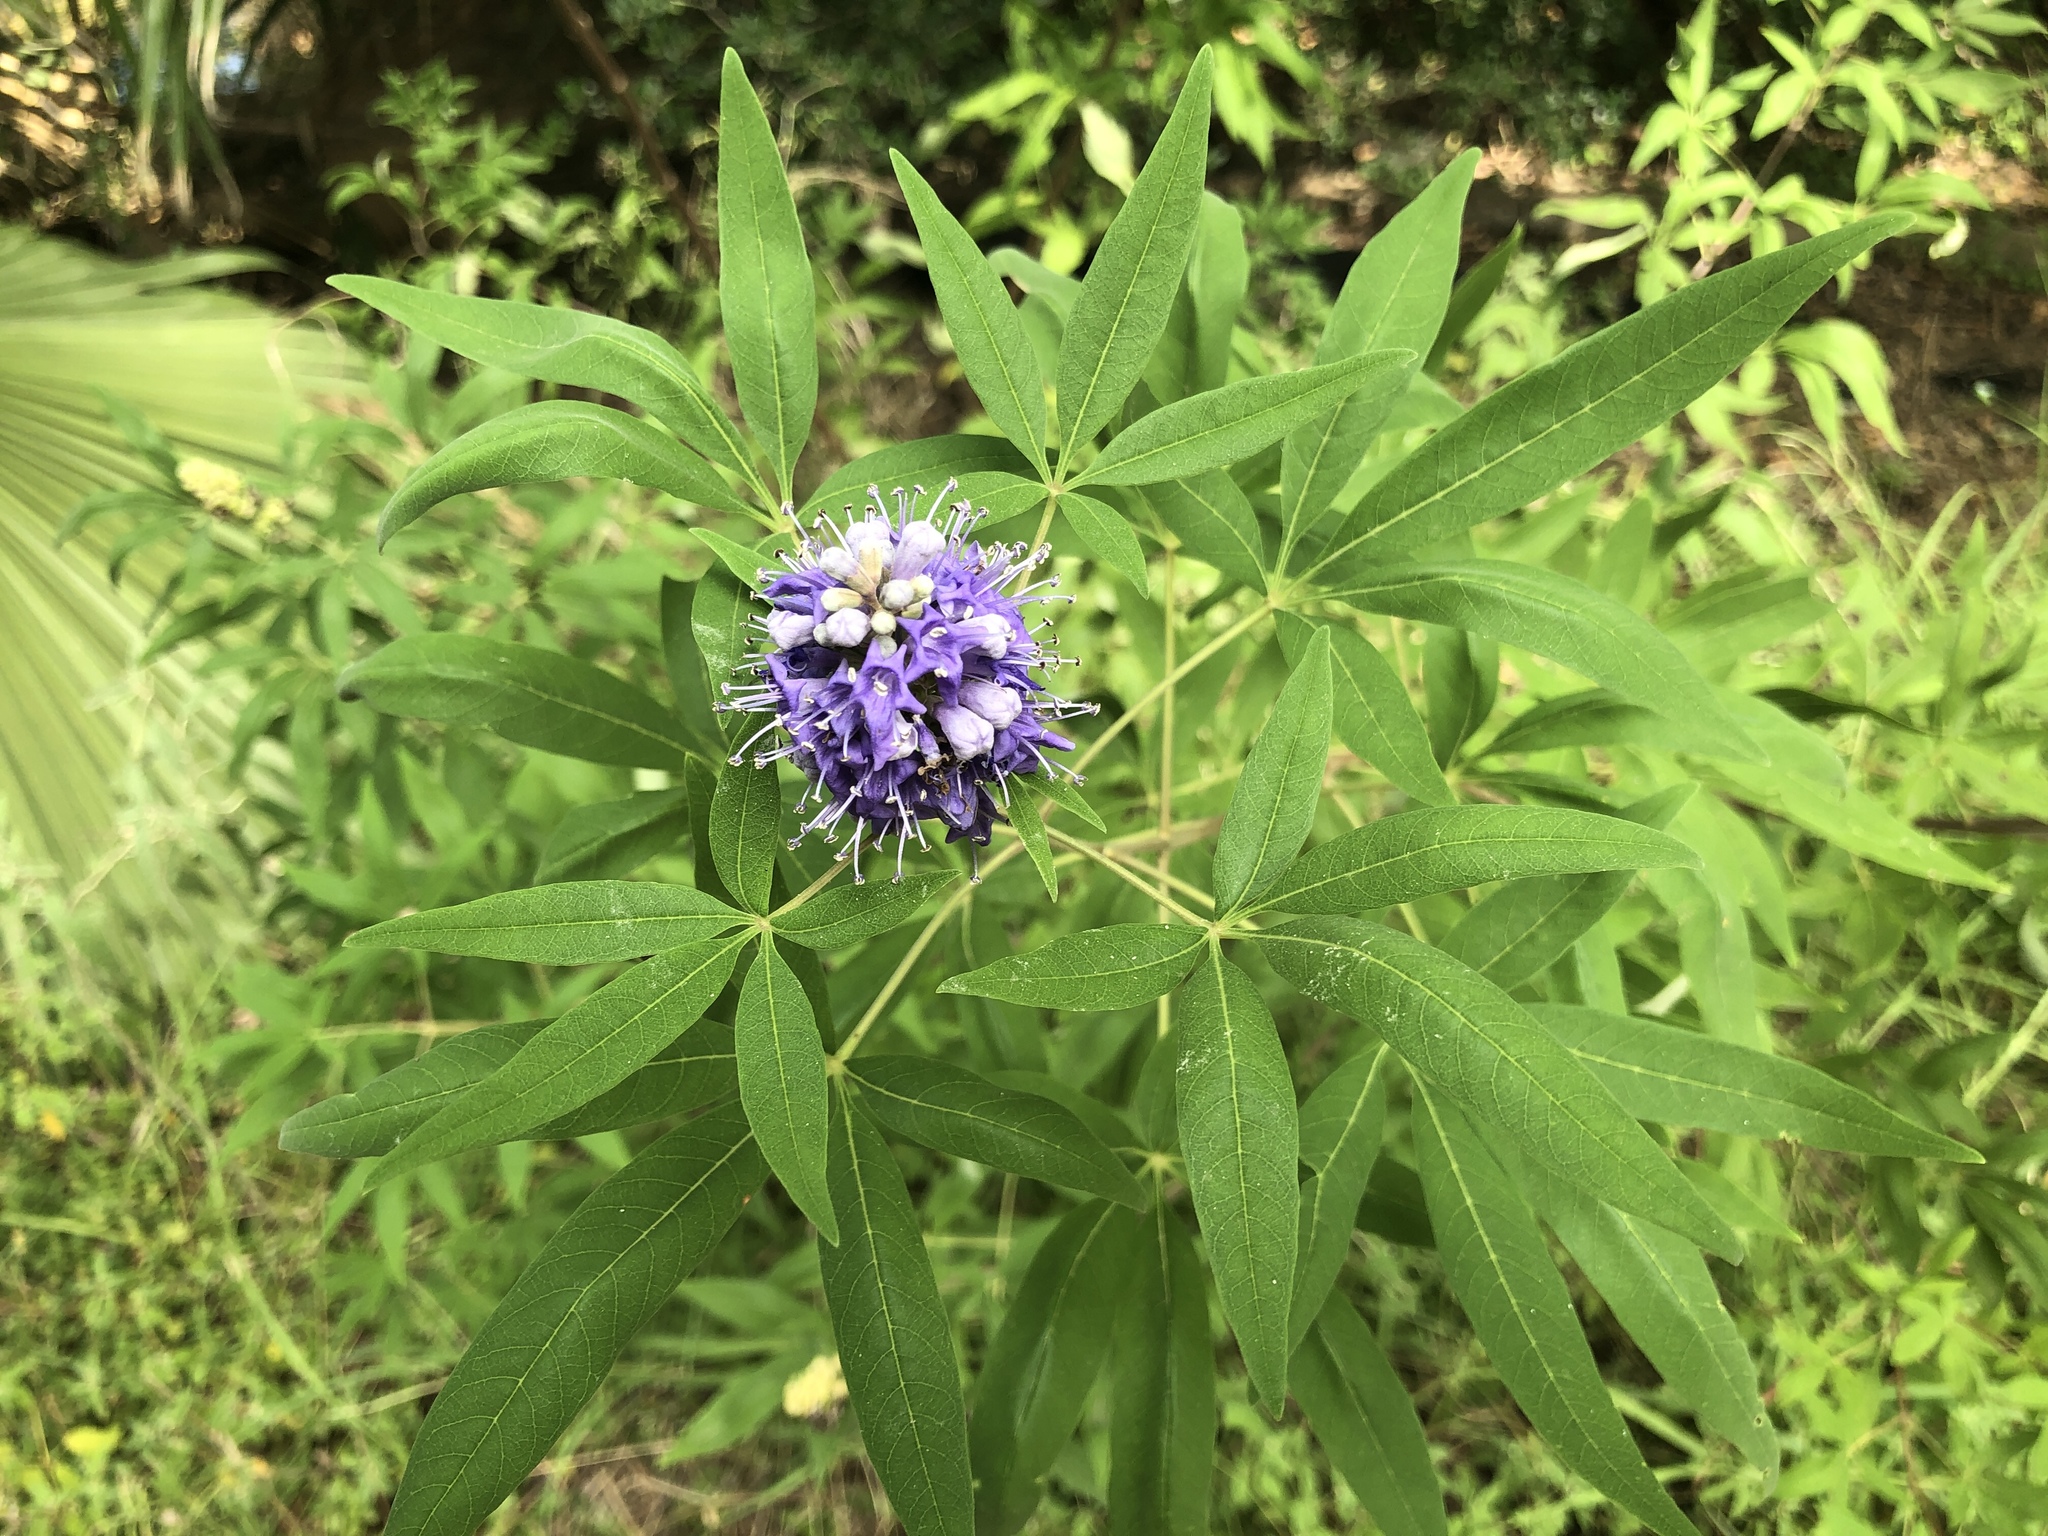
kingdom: Plantae
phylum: Tracheophyta
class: Magnoliopsida
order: Lamiales
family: Lamiaceae
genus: Vitex
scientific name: Vitex agnus-castus
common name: Chasteberry
